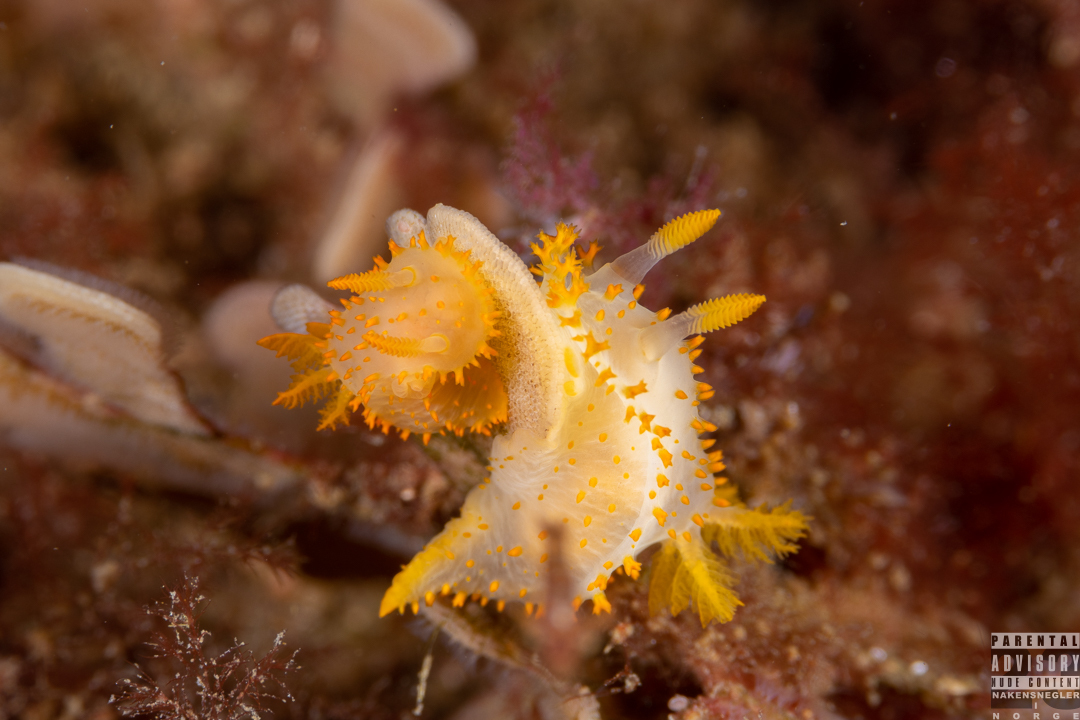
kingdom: Animalia
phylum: Mollusca
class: Gastropoda
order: Nudibranchia
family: Polyceridae
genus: Crimora
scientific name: Crimora papillata
